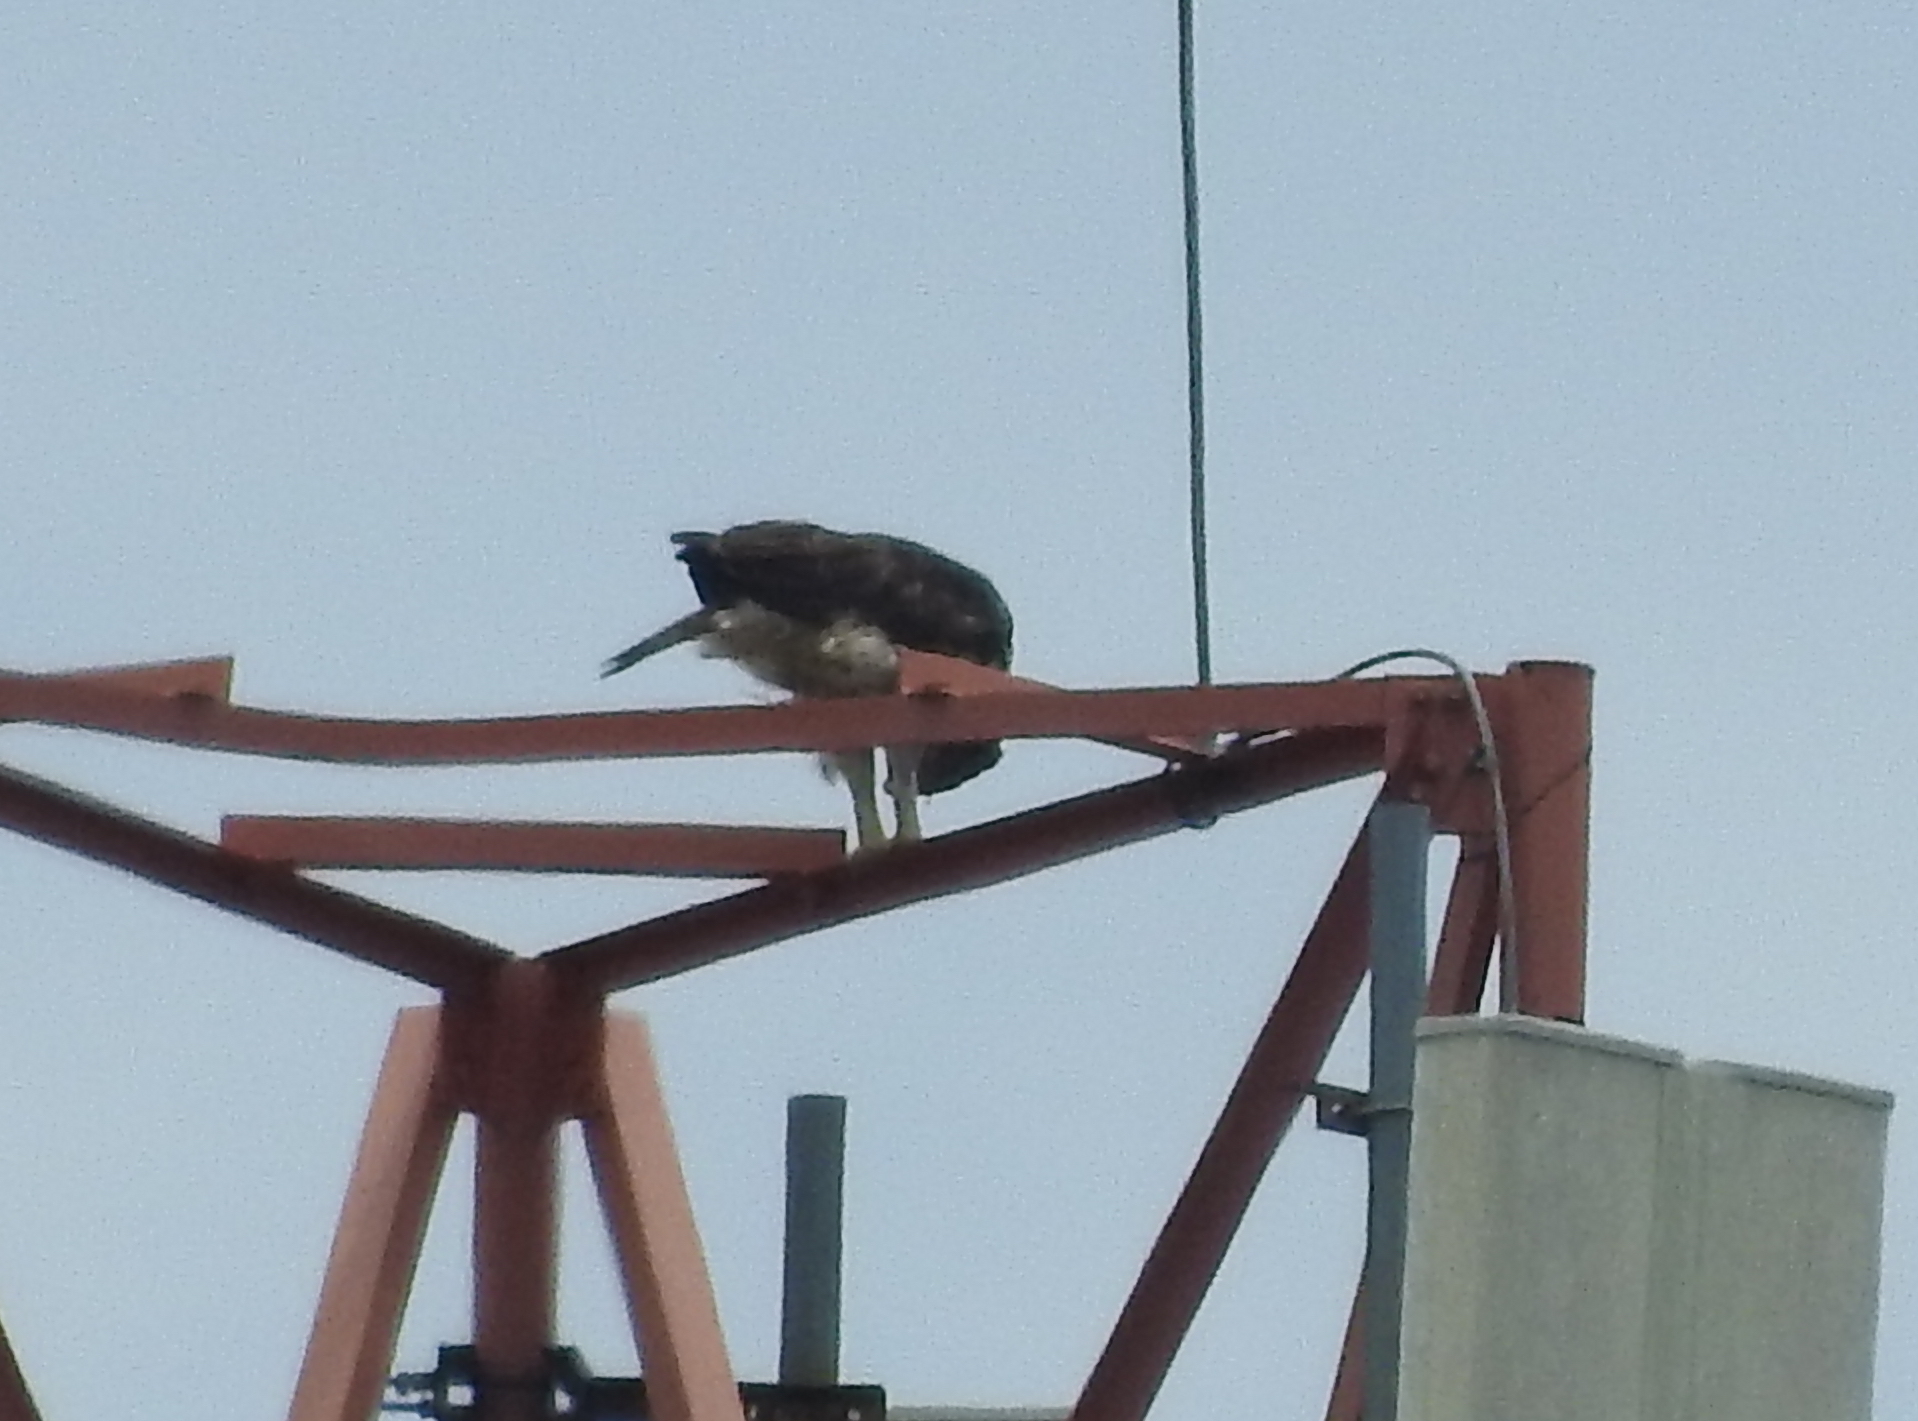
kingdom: Animalia
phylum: Chordata
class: Aves
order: Accipitriformes
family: Accipitridae
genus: Nisaetus
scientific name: Nisaetus cirrhatus
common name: Changeable hawk-eagle
